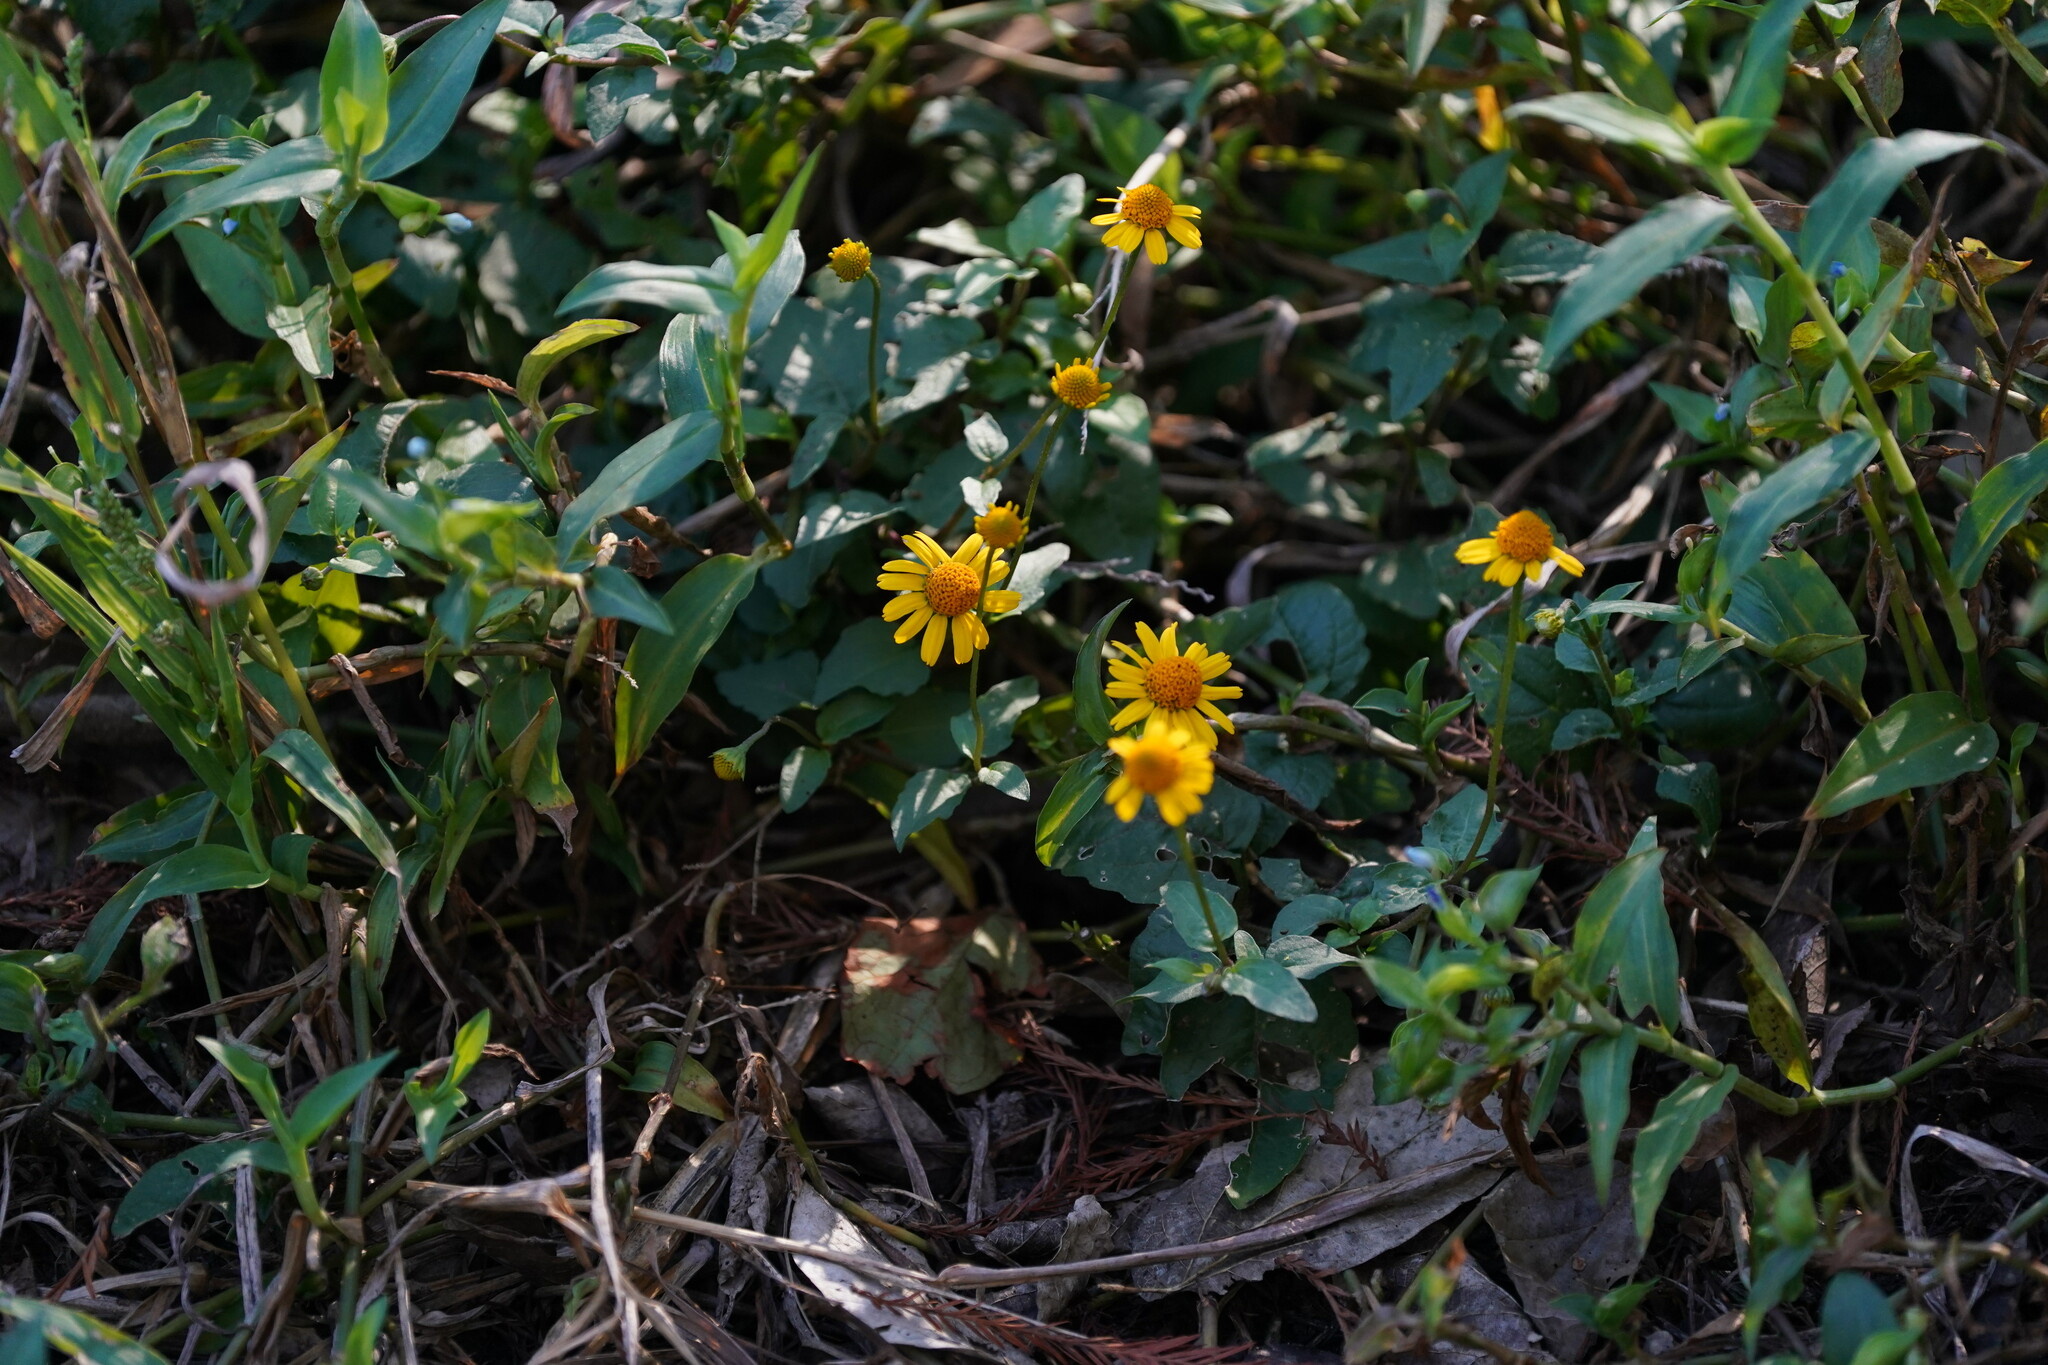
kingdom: Plantae
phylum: Tracheophyta
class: Magnoliopsida
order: Asterales
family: Asteraceae
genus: Acmella
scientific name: Acmella repens
